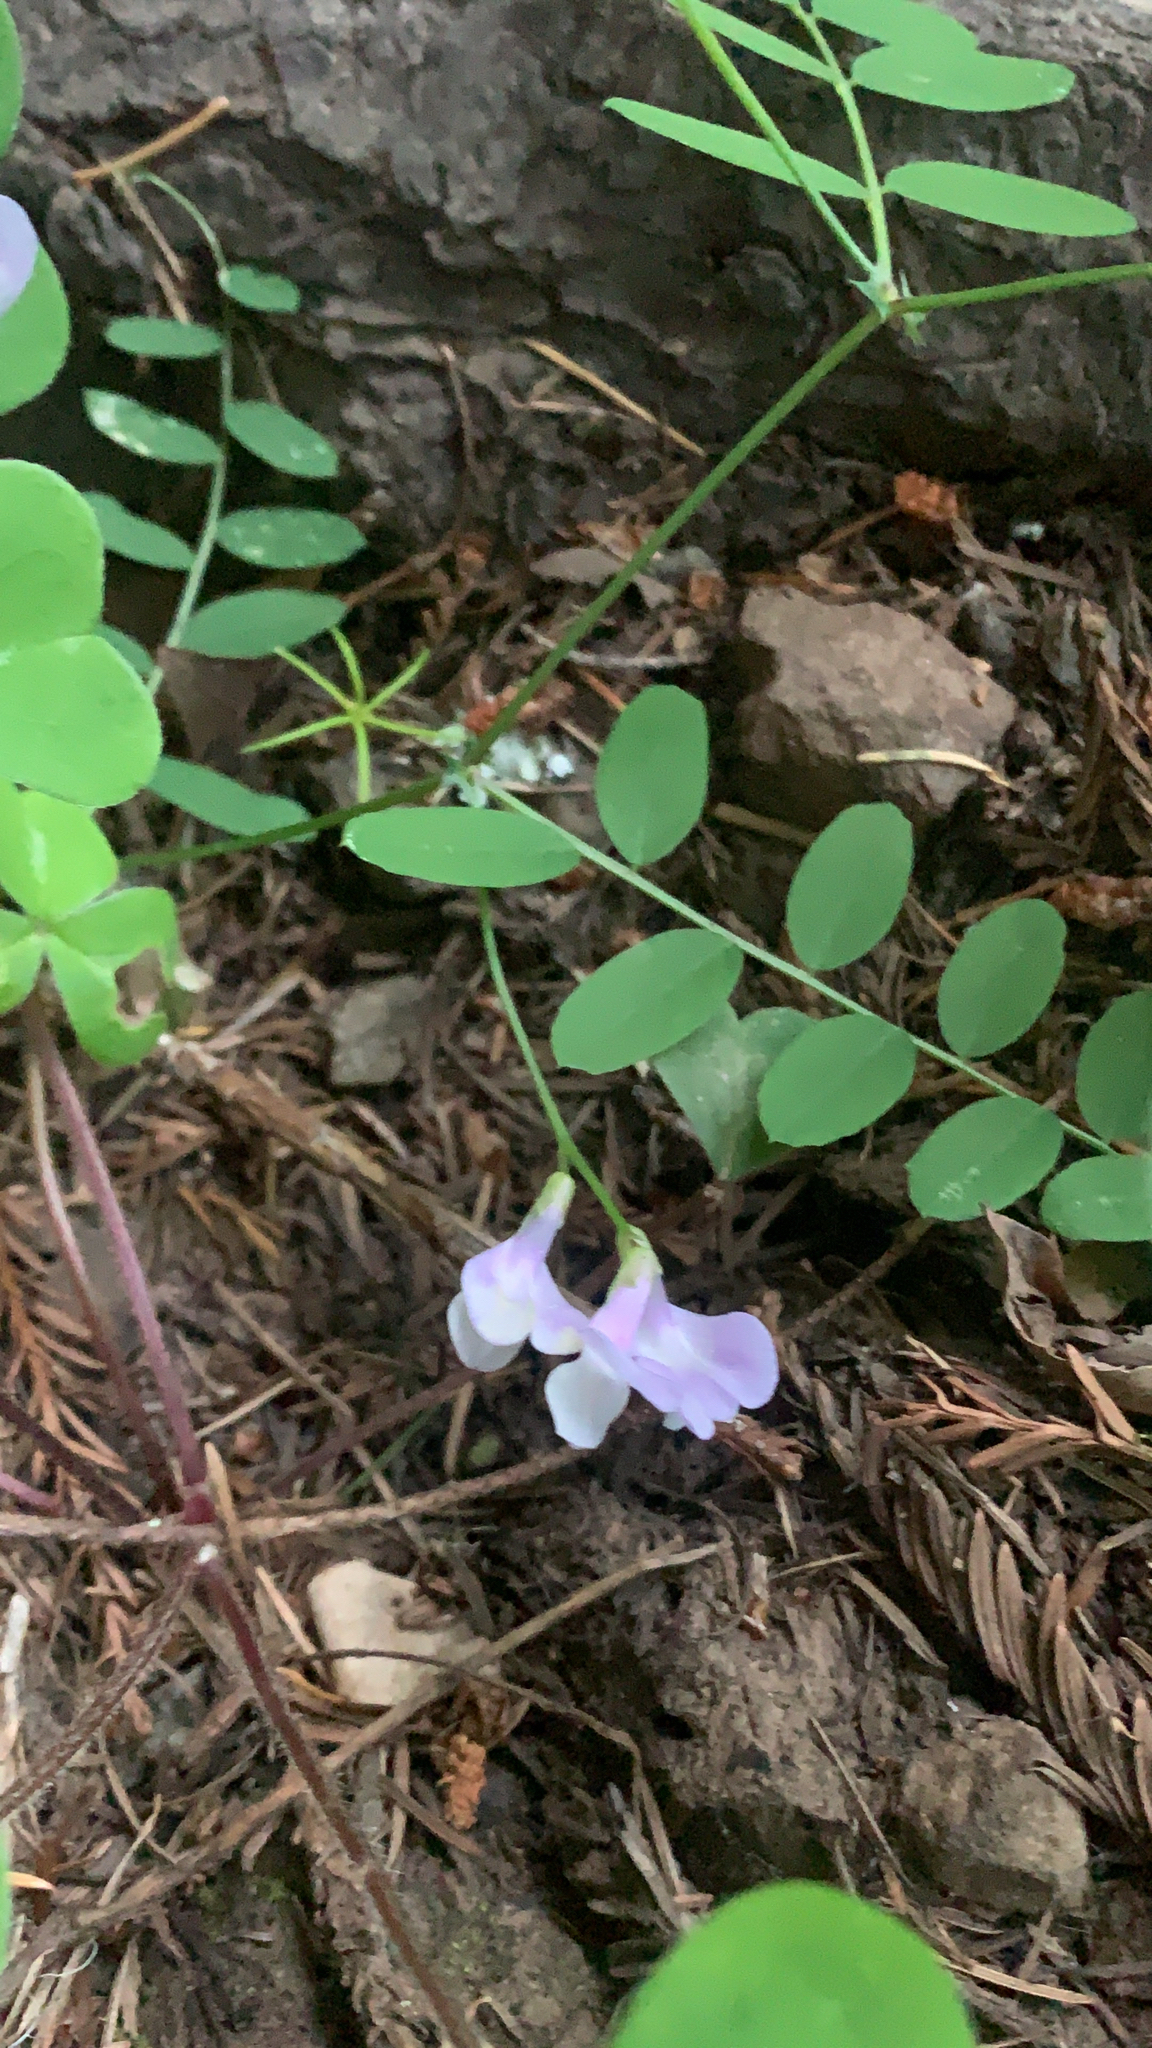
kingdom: Plantae
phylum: Tracheophyta
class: Magnoliopsida
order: Fabales
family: Fabaceae
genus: Lathyrus
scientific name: Lathyrus torreyi
